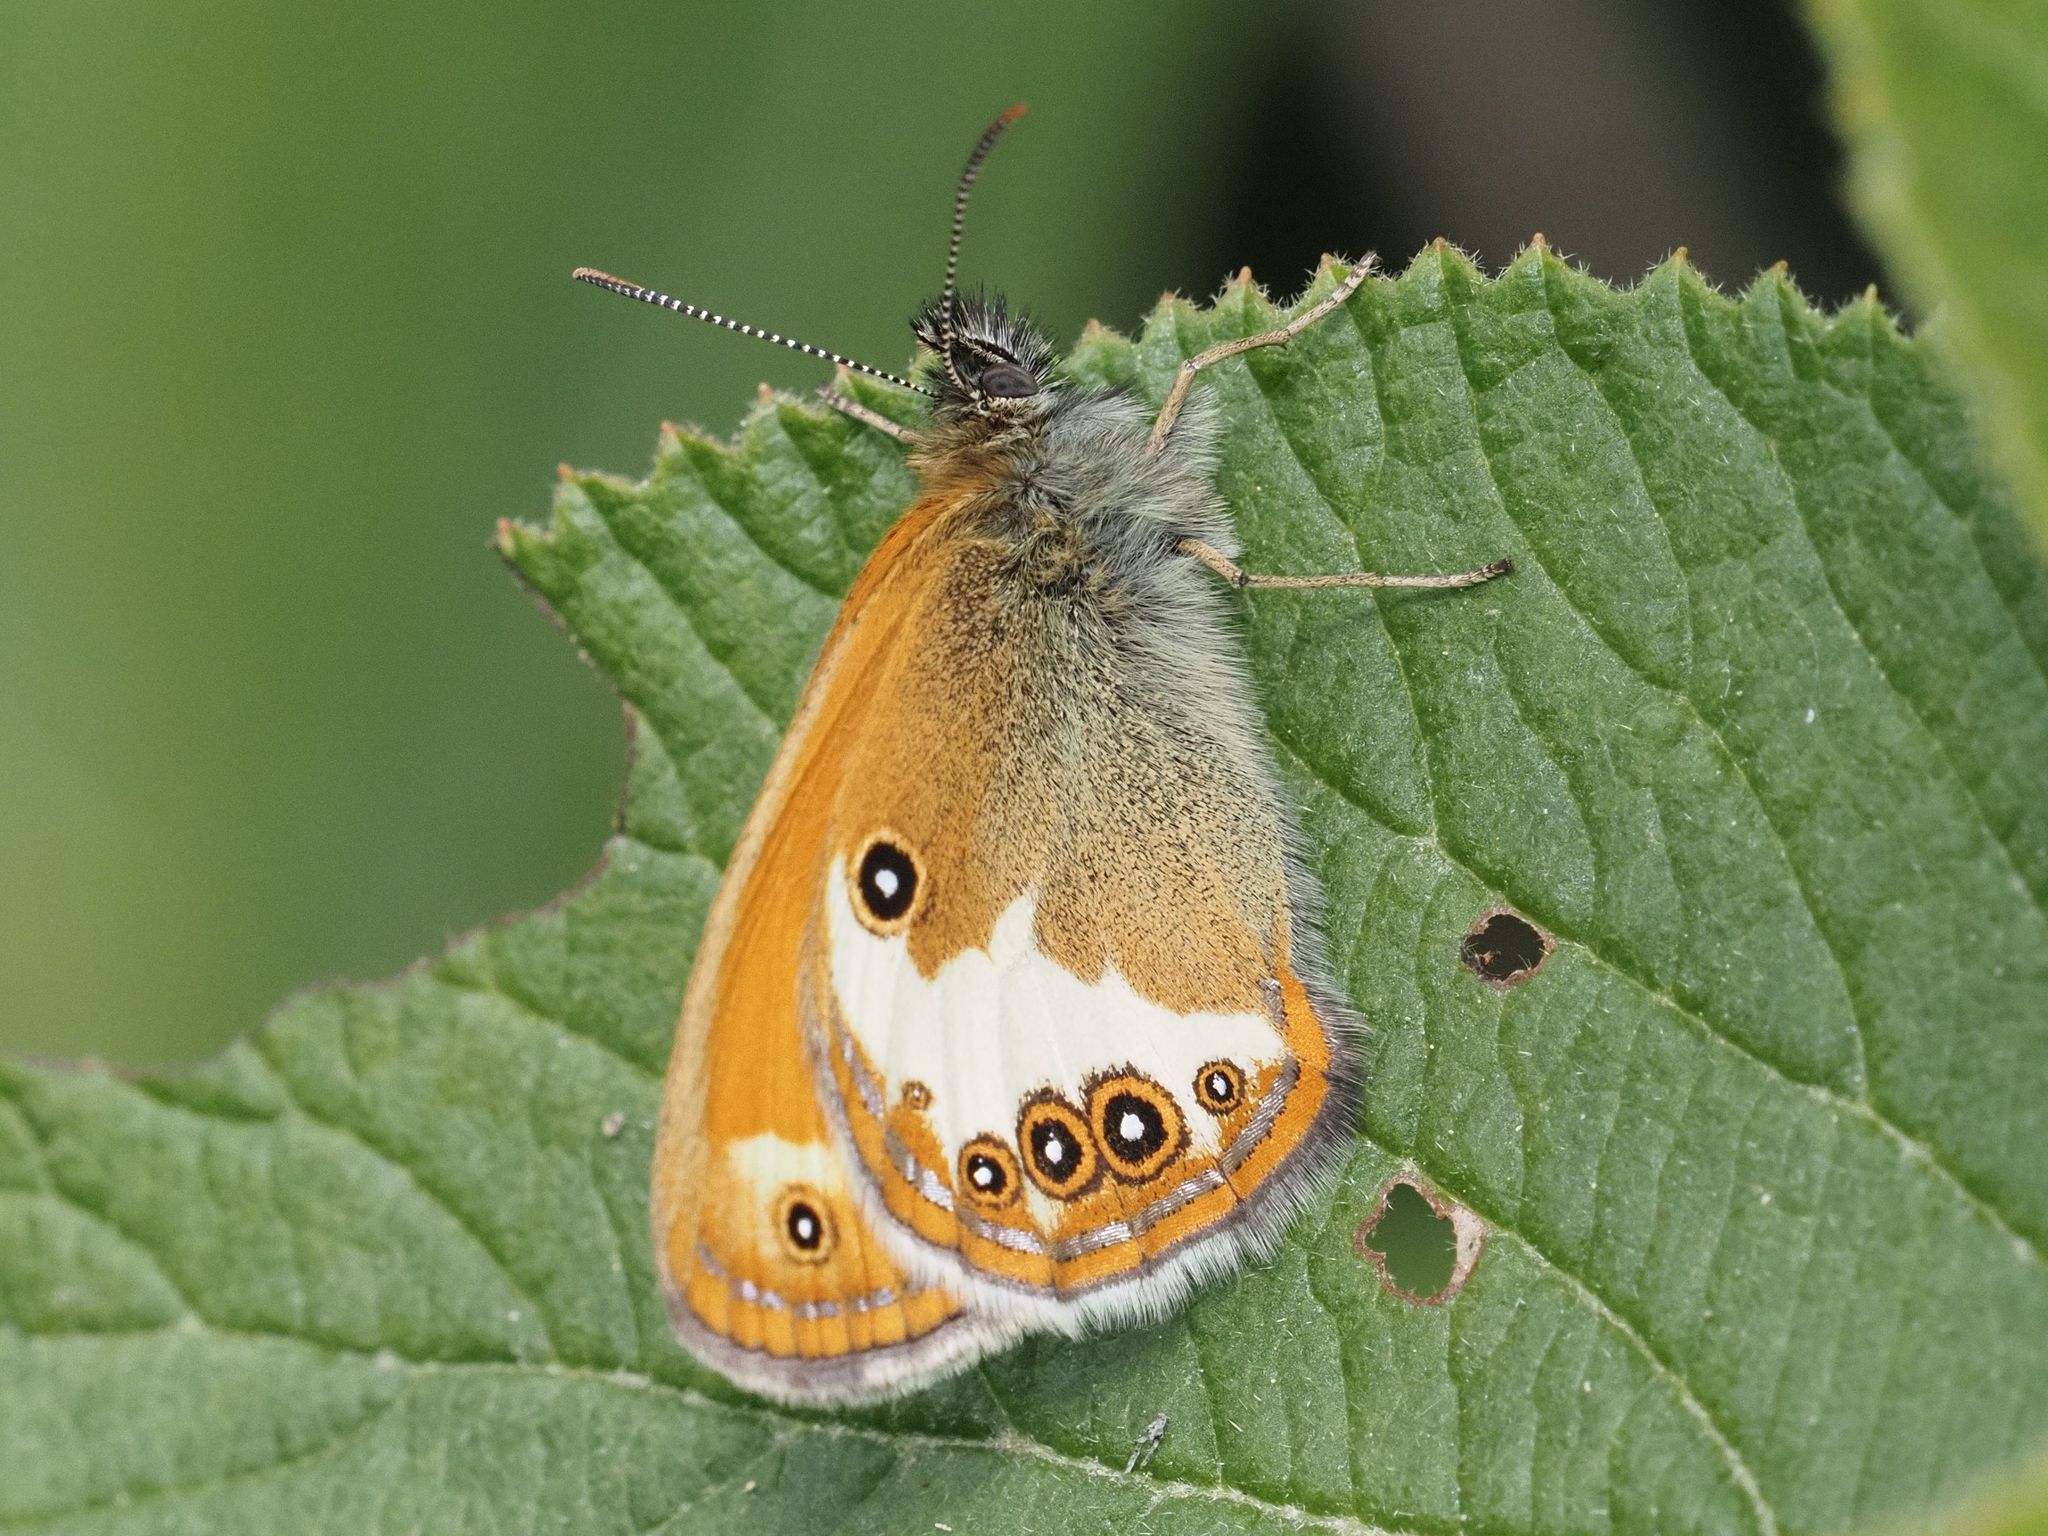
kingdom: Animalia
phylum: Arthropoda
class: Insecta
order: Lepidoptera
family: Nymphalidae
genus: Coenonympha
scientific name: Coenonympha arcania
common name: Pearly heath
